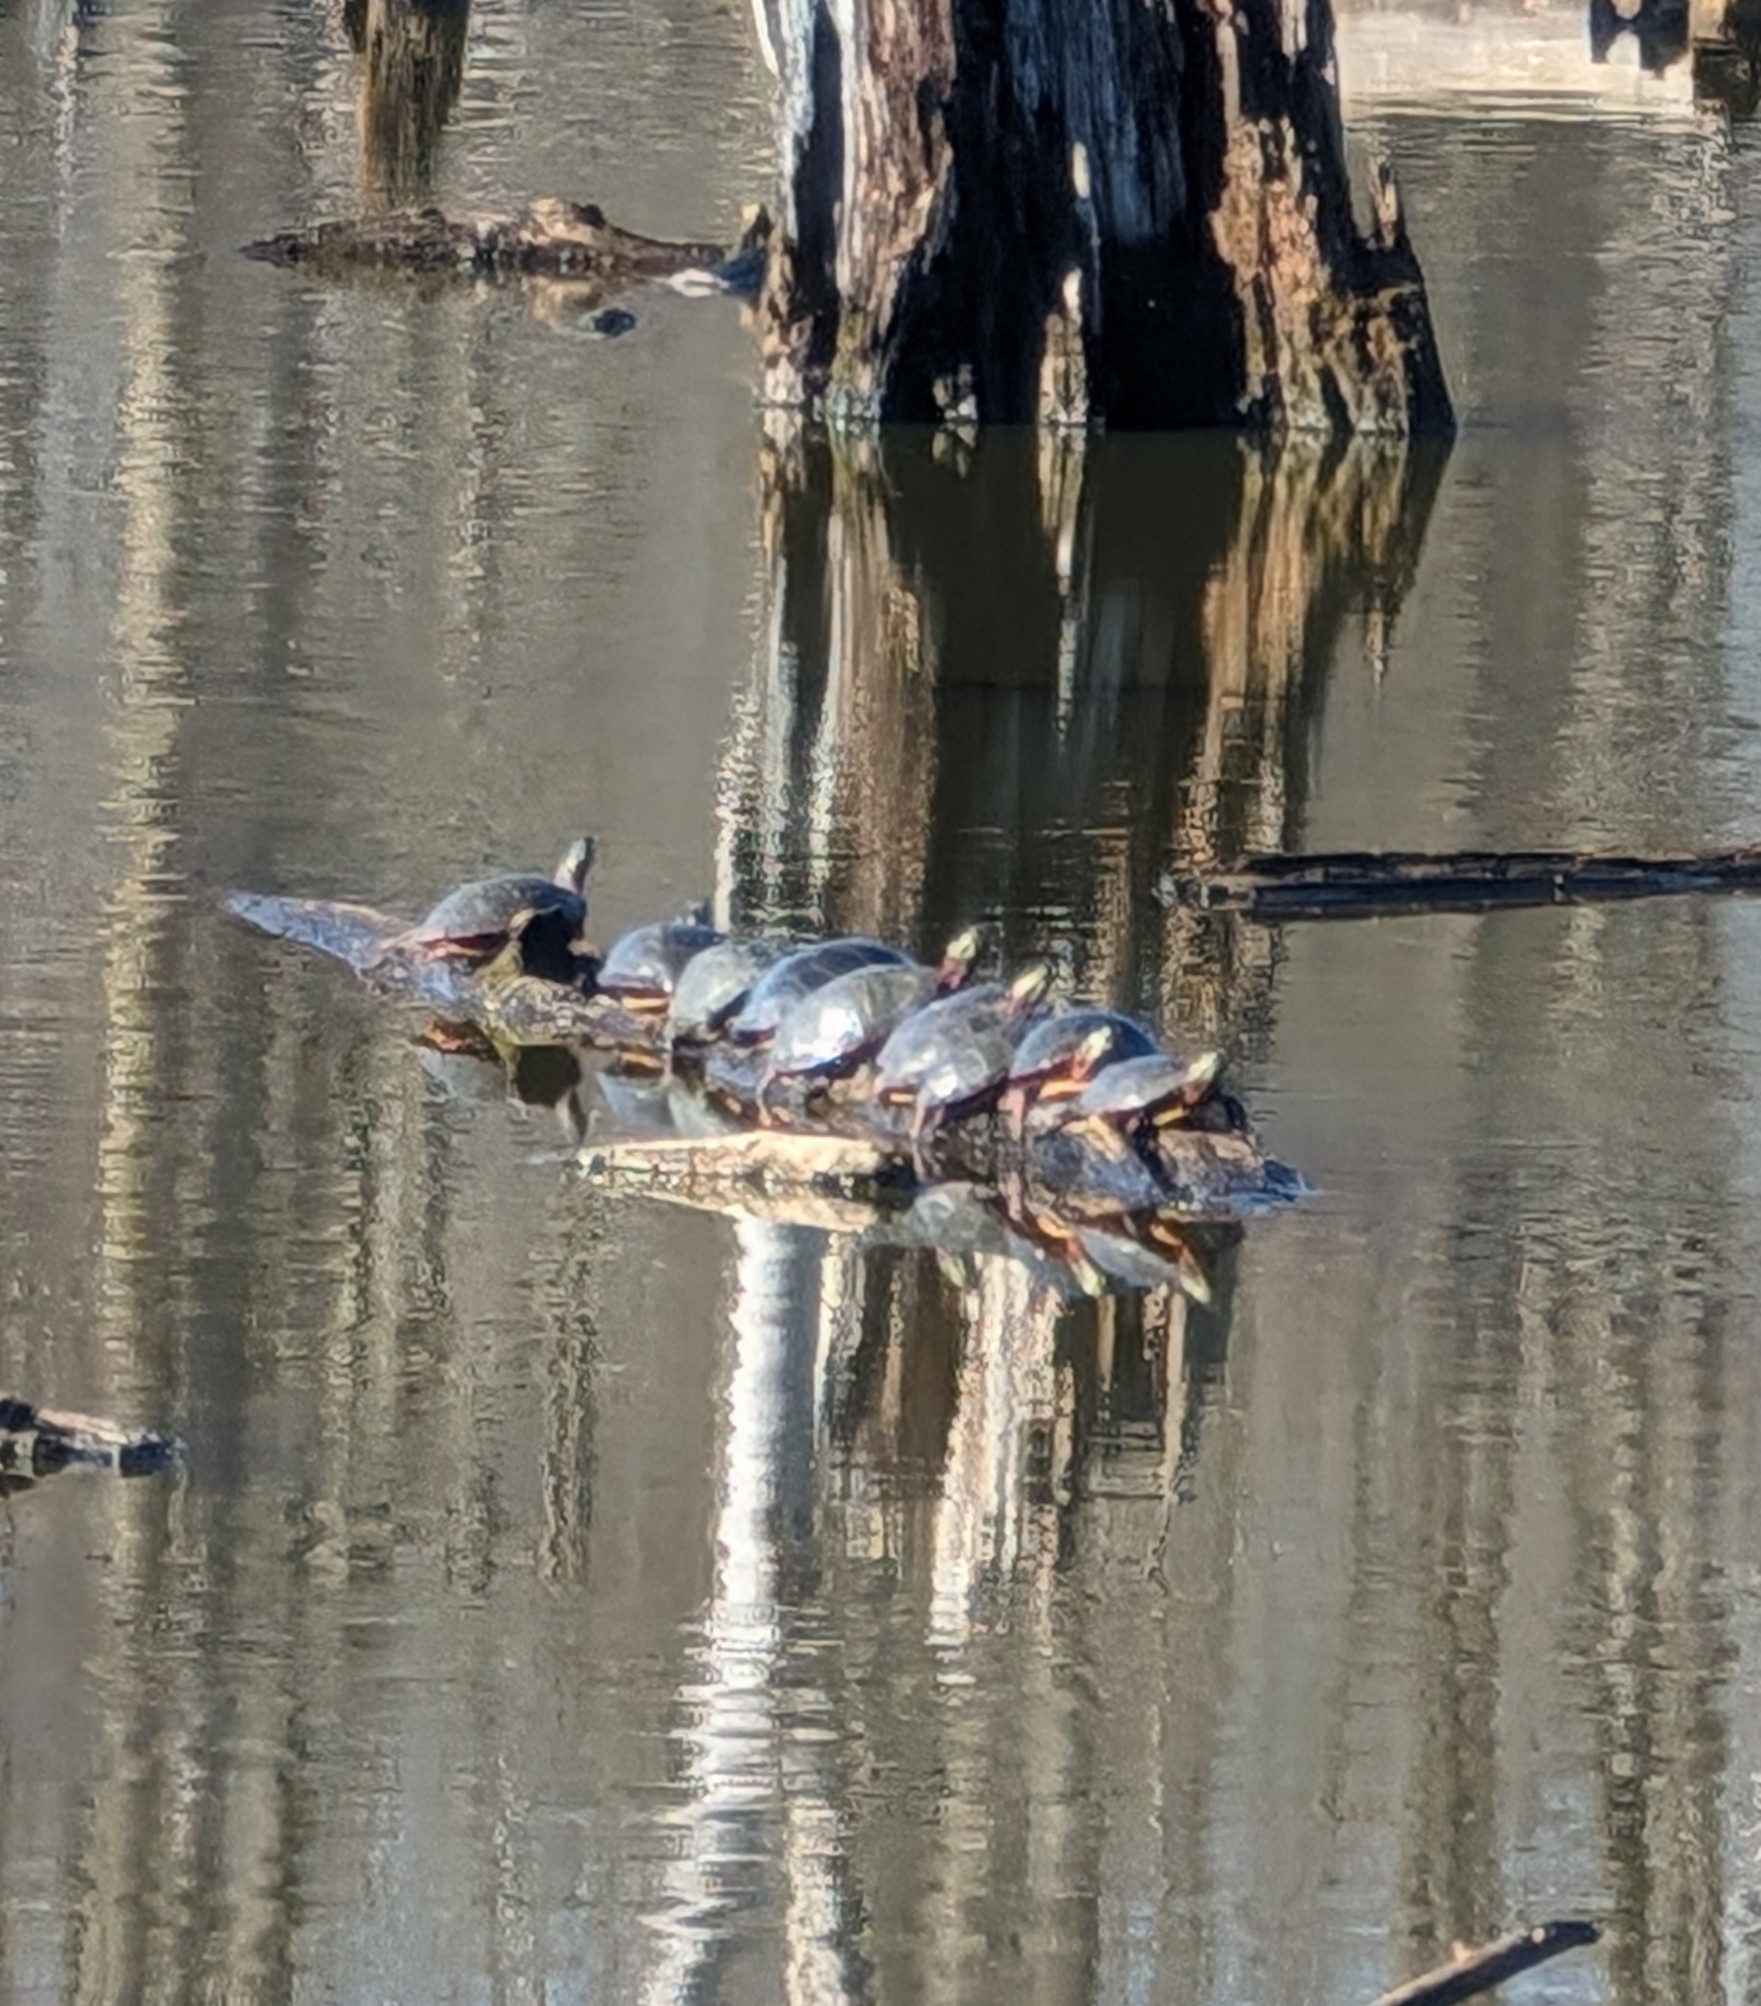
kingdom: Animalia
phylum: Chordata
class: Testudines
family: Emydidae
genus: Chrysemys
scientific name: Chrysemys picta
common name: Painted turtle
